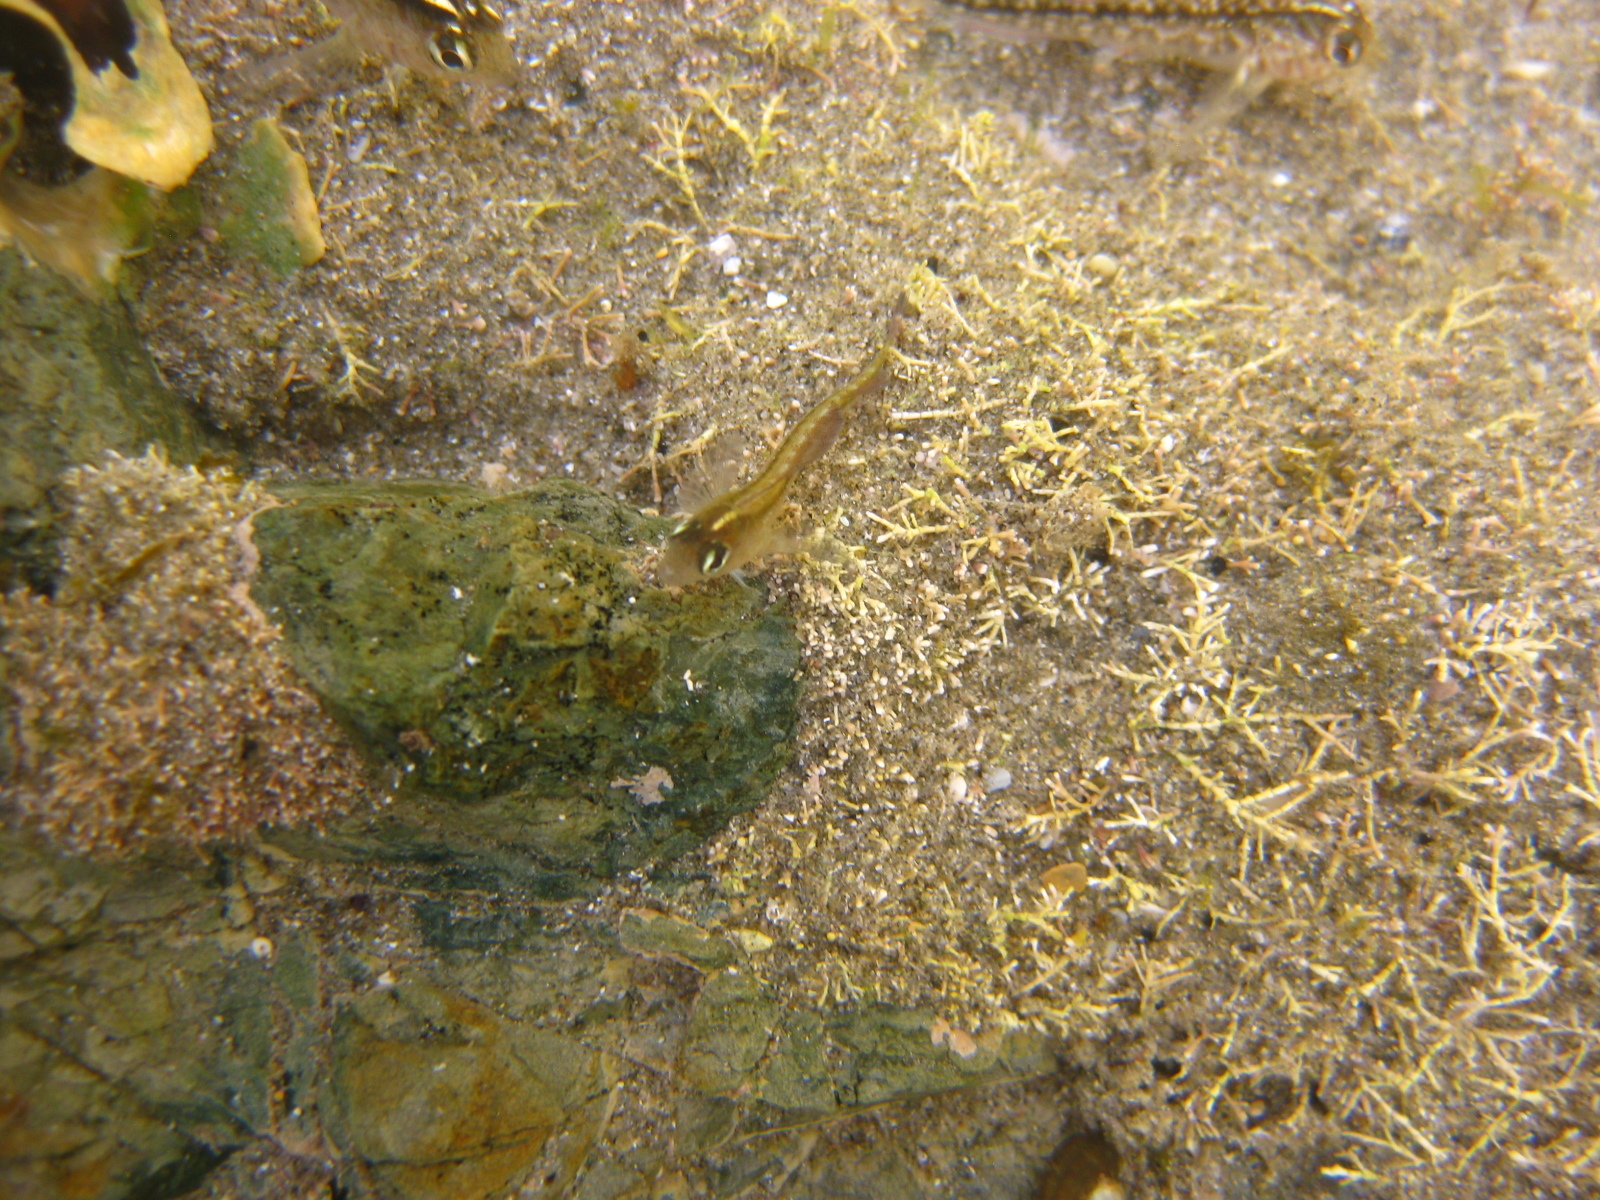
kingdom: Animalia
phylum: Chordata
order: Perciformes
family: Tripterygiidae
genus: Forsterygion
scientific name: Forsterygion lapillum
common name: Common triplefin
